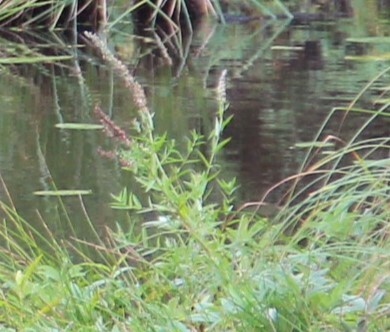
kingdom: Plantae
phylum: Tracheophyta
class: Magnoliopsida
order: Myrtales
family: Lythraceae
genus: Lythrum
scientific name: Lythrum salicaria
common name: Purple loosestrife
